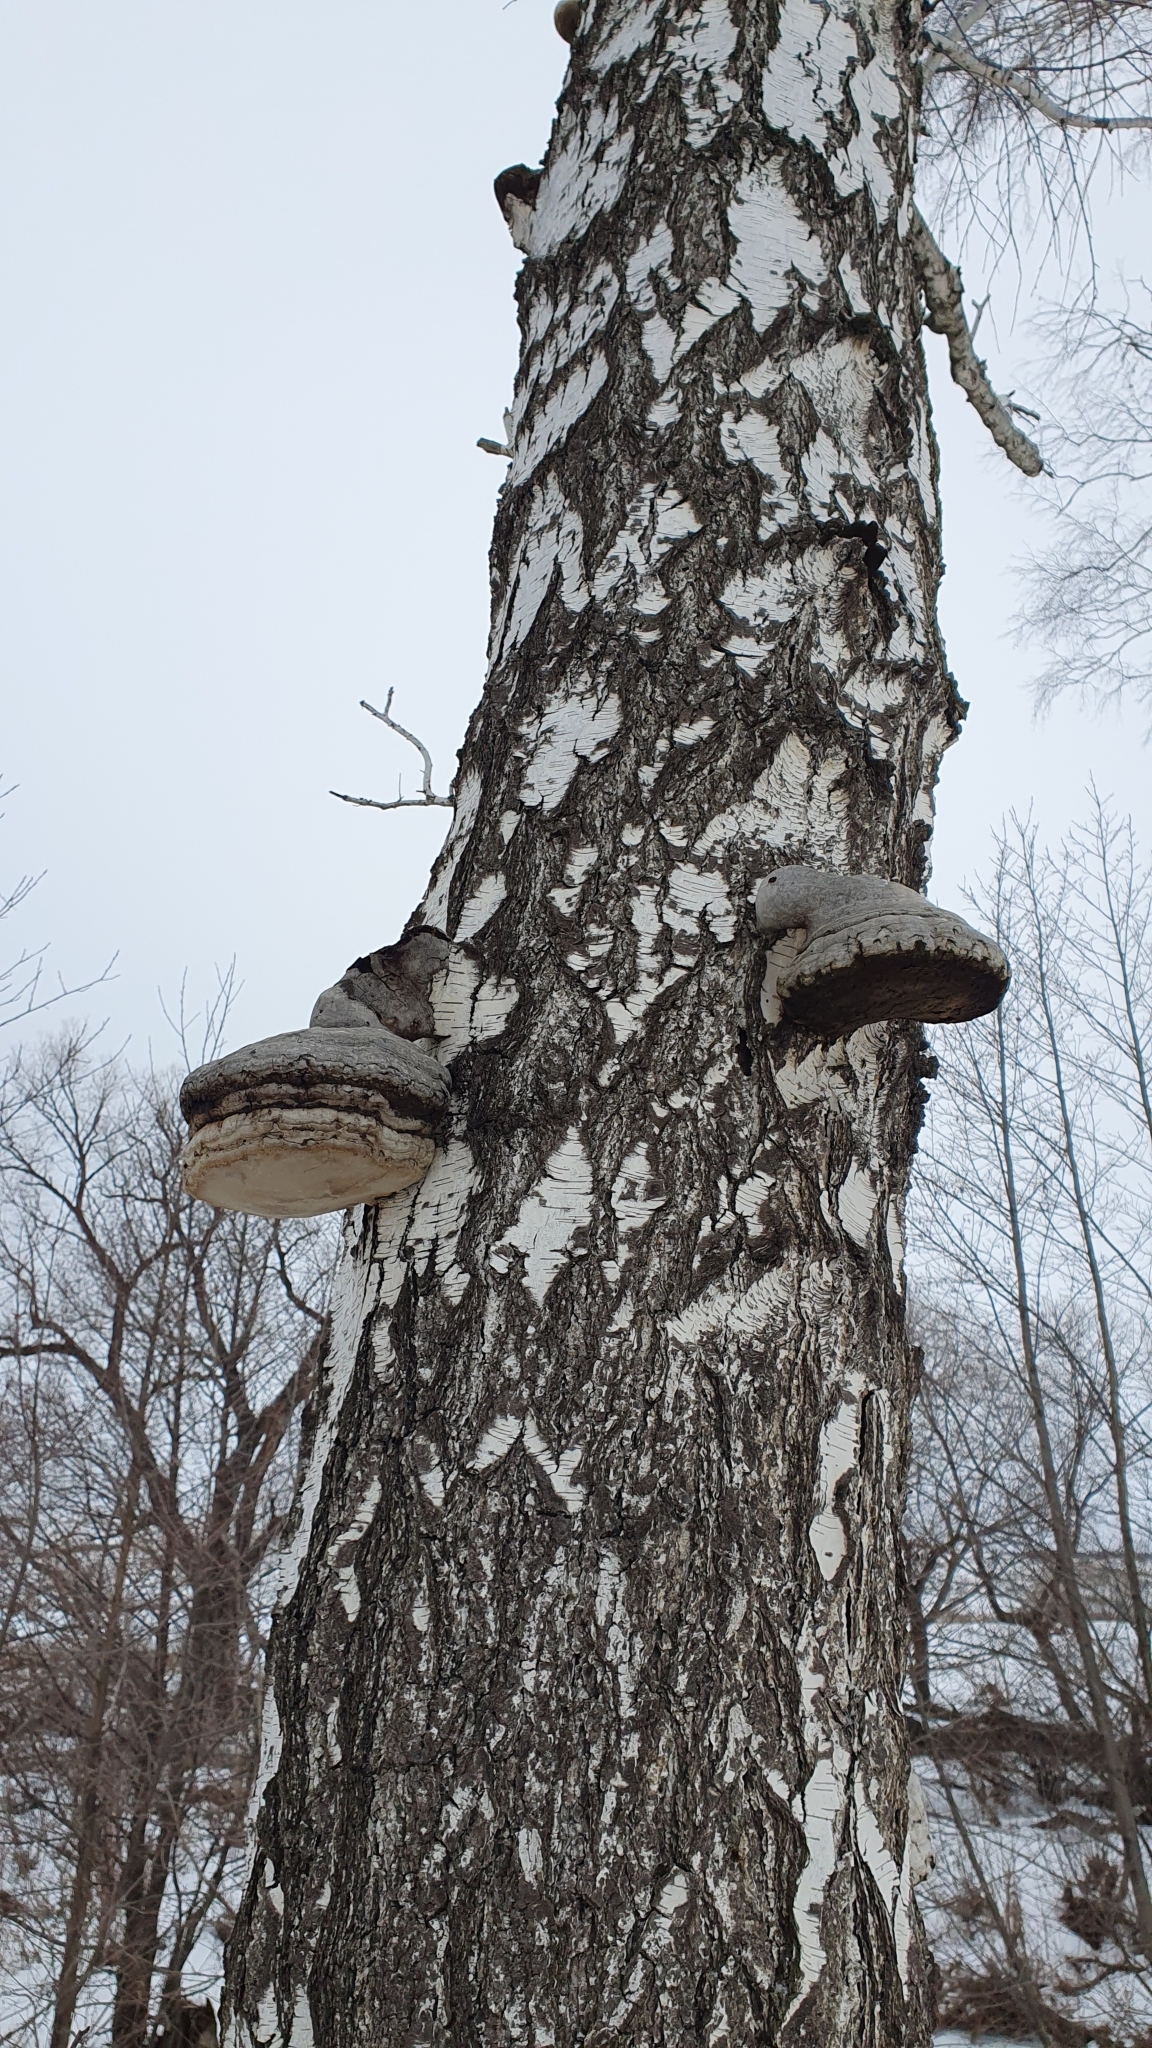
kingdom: Fungi
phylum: Basidiomycota
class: Agaricomycetes
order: Polyporales
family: Polyporaceae
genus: Fomes
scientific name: Fomes fomentarius
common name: Hoof fungus
